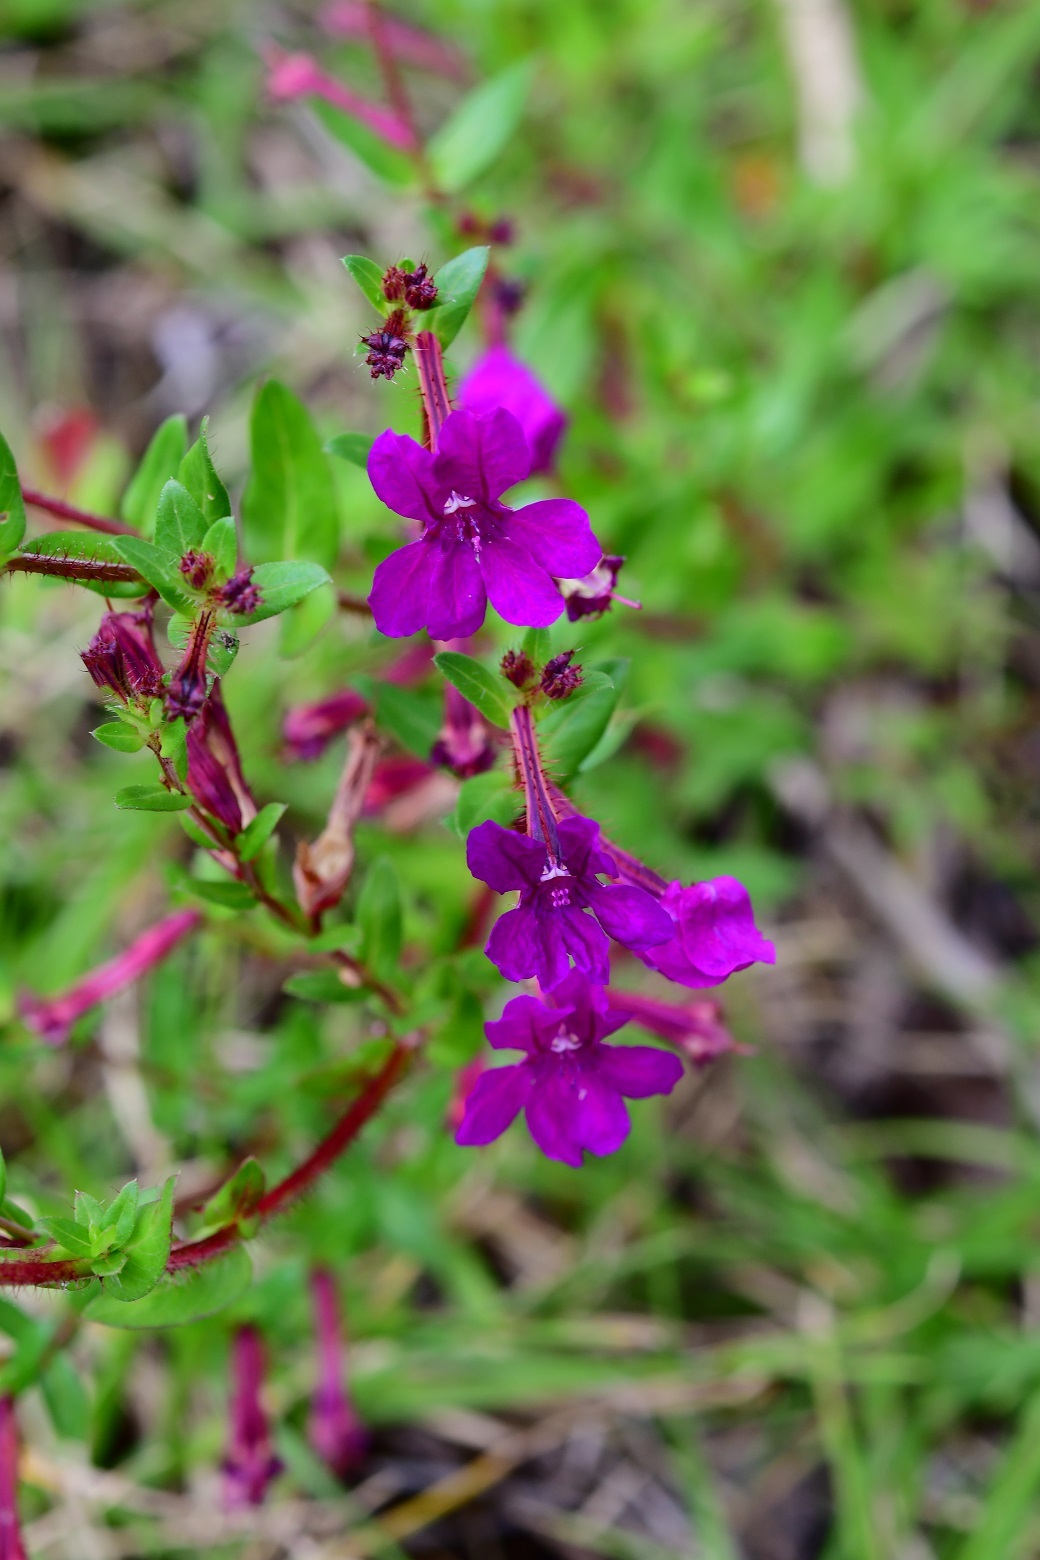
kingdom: Plantae
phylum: Tracheophyta
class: Magnoliopsida
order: Myrtales
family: Lythraceae
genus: Cuphea
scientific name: Cuphea aequipetala
